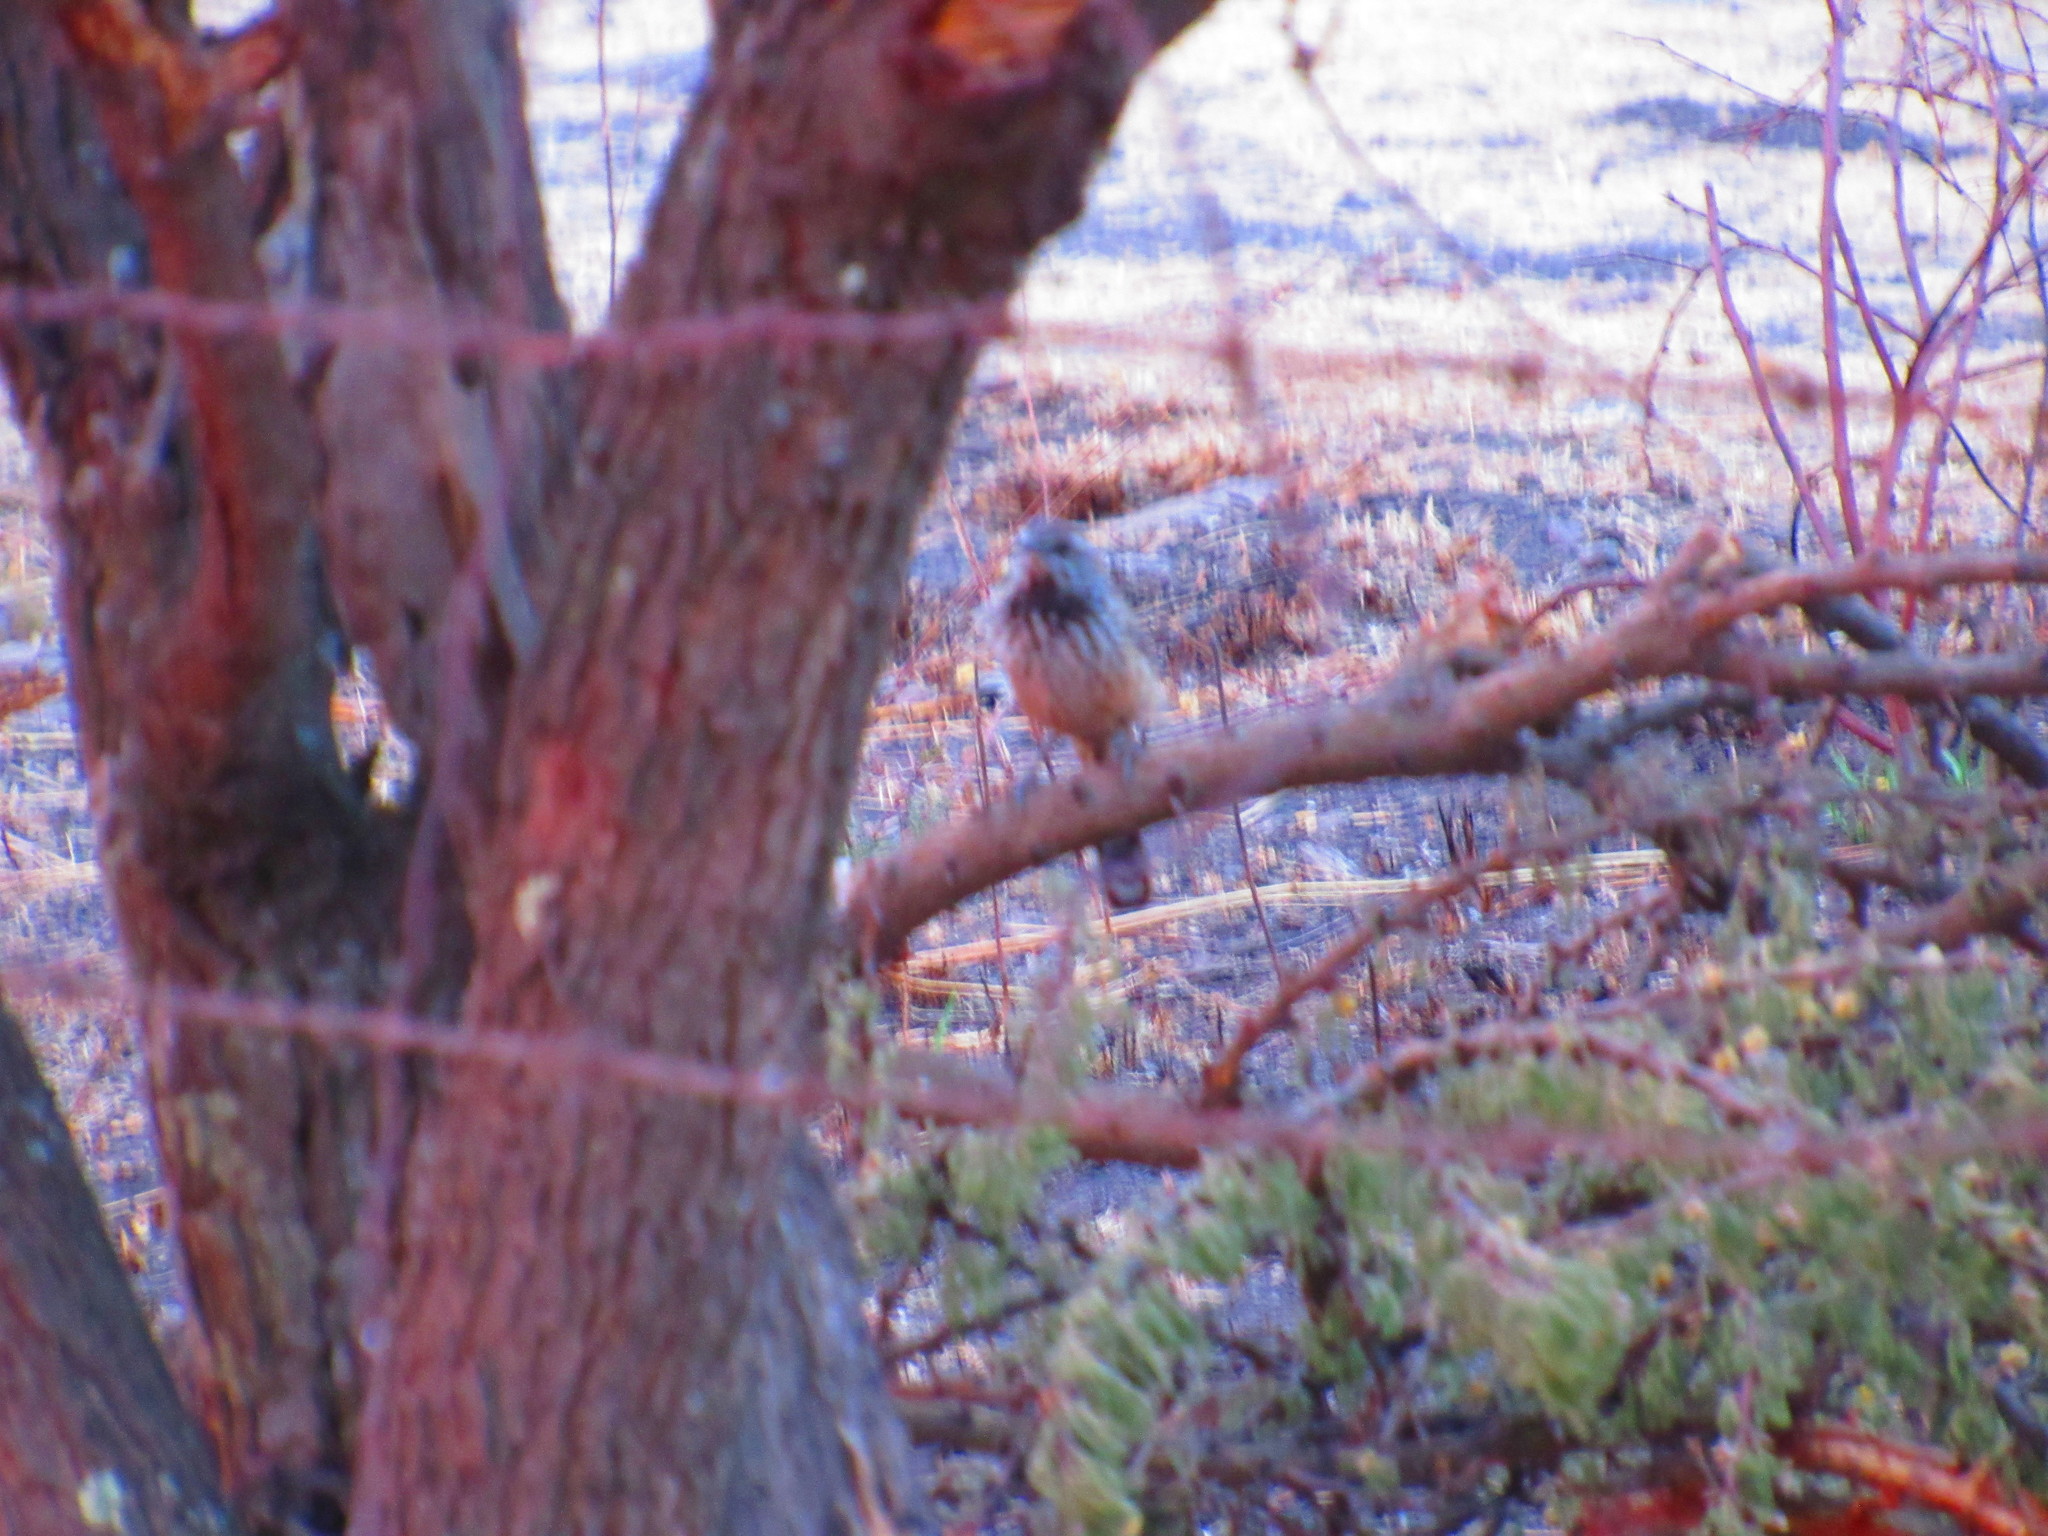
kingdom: Animalia
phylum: Chordata
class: Aves
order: Passeriformes
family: Troglodytidae
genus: Campylorhynchus
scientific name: Campylorhynchus brunneicapillus
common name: Cactus wren
